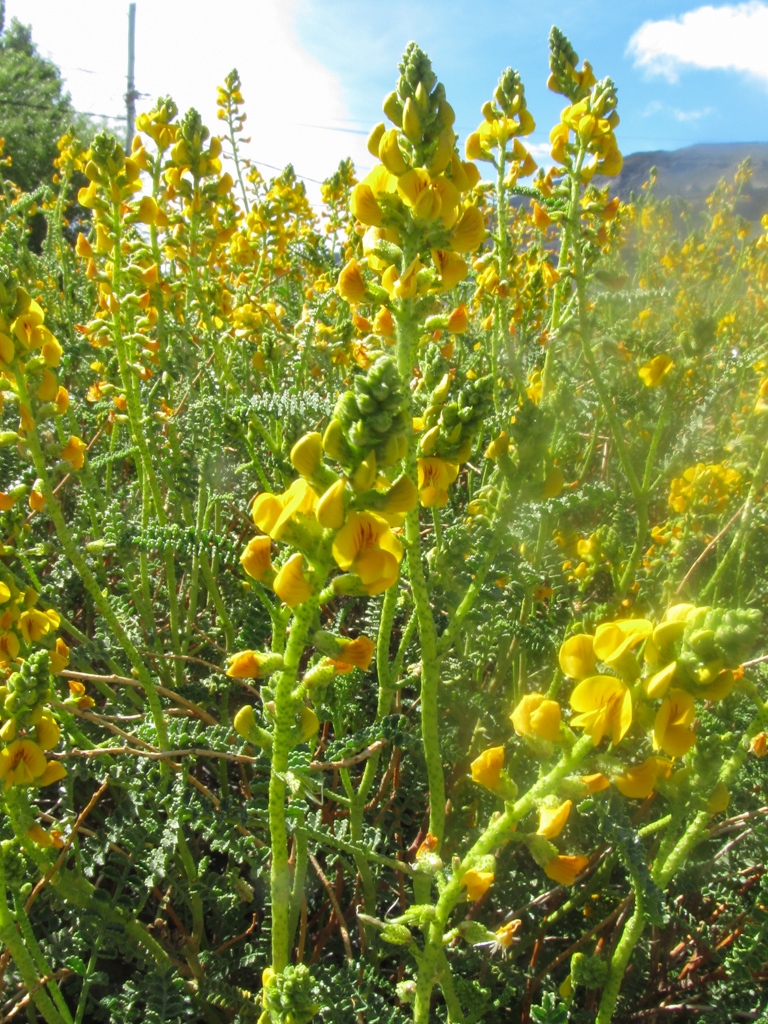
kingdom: Plantae
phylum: Tracheophyta
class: Magnoliopsida
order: Fabales
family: Fabaceae
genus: Adesmia
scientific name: Adesmia boronioides
